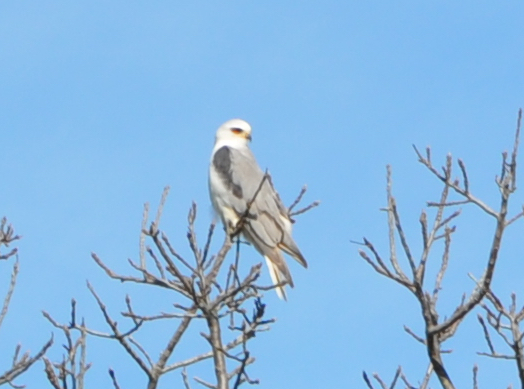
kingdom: Animalia
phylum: Chordata
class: Aves
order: Accipitriformes
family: Accipitridae
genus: Elanus
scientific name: Elanus leucurus
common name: White-tailed kite
